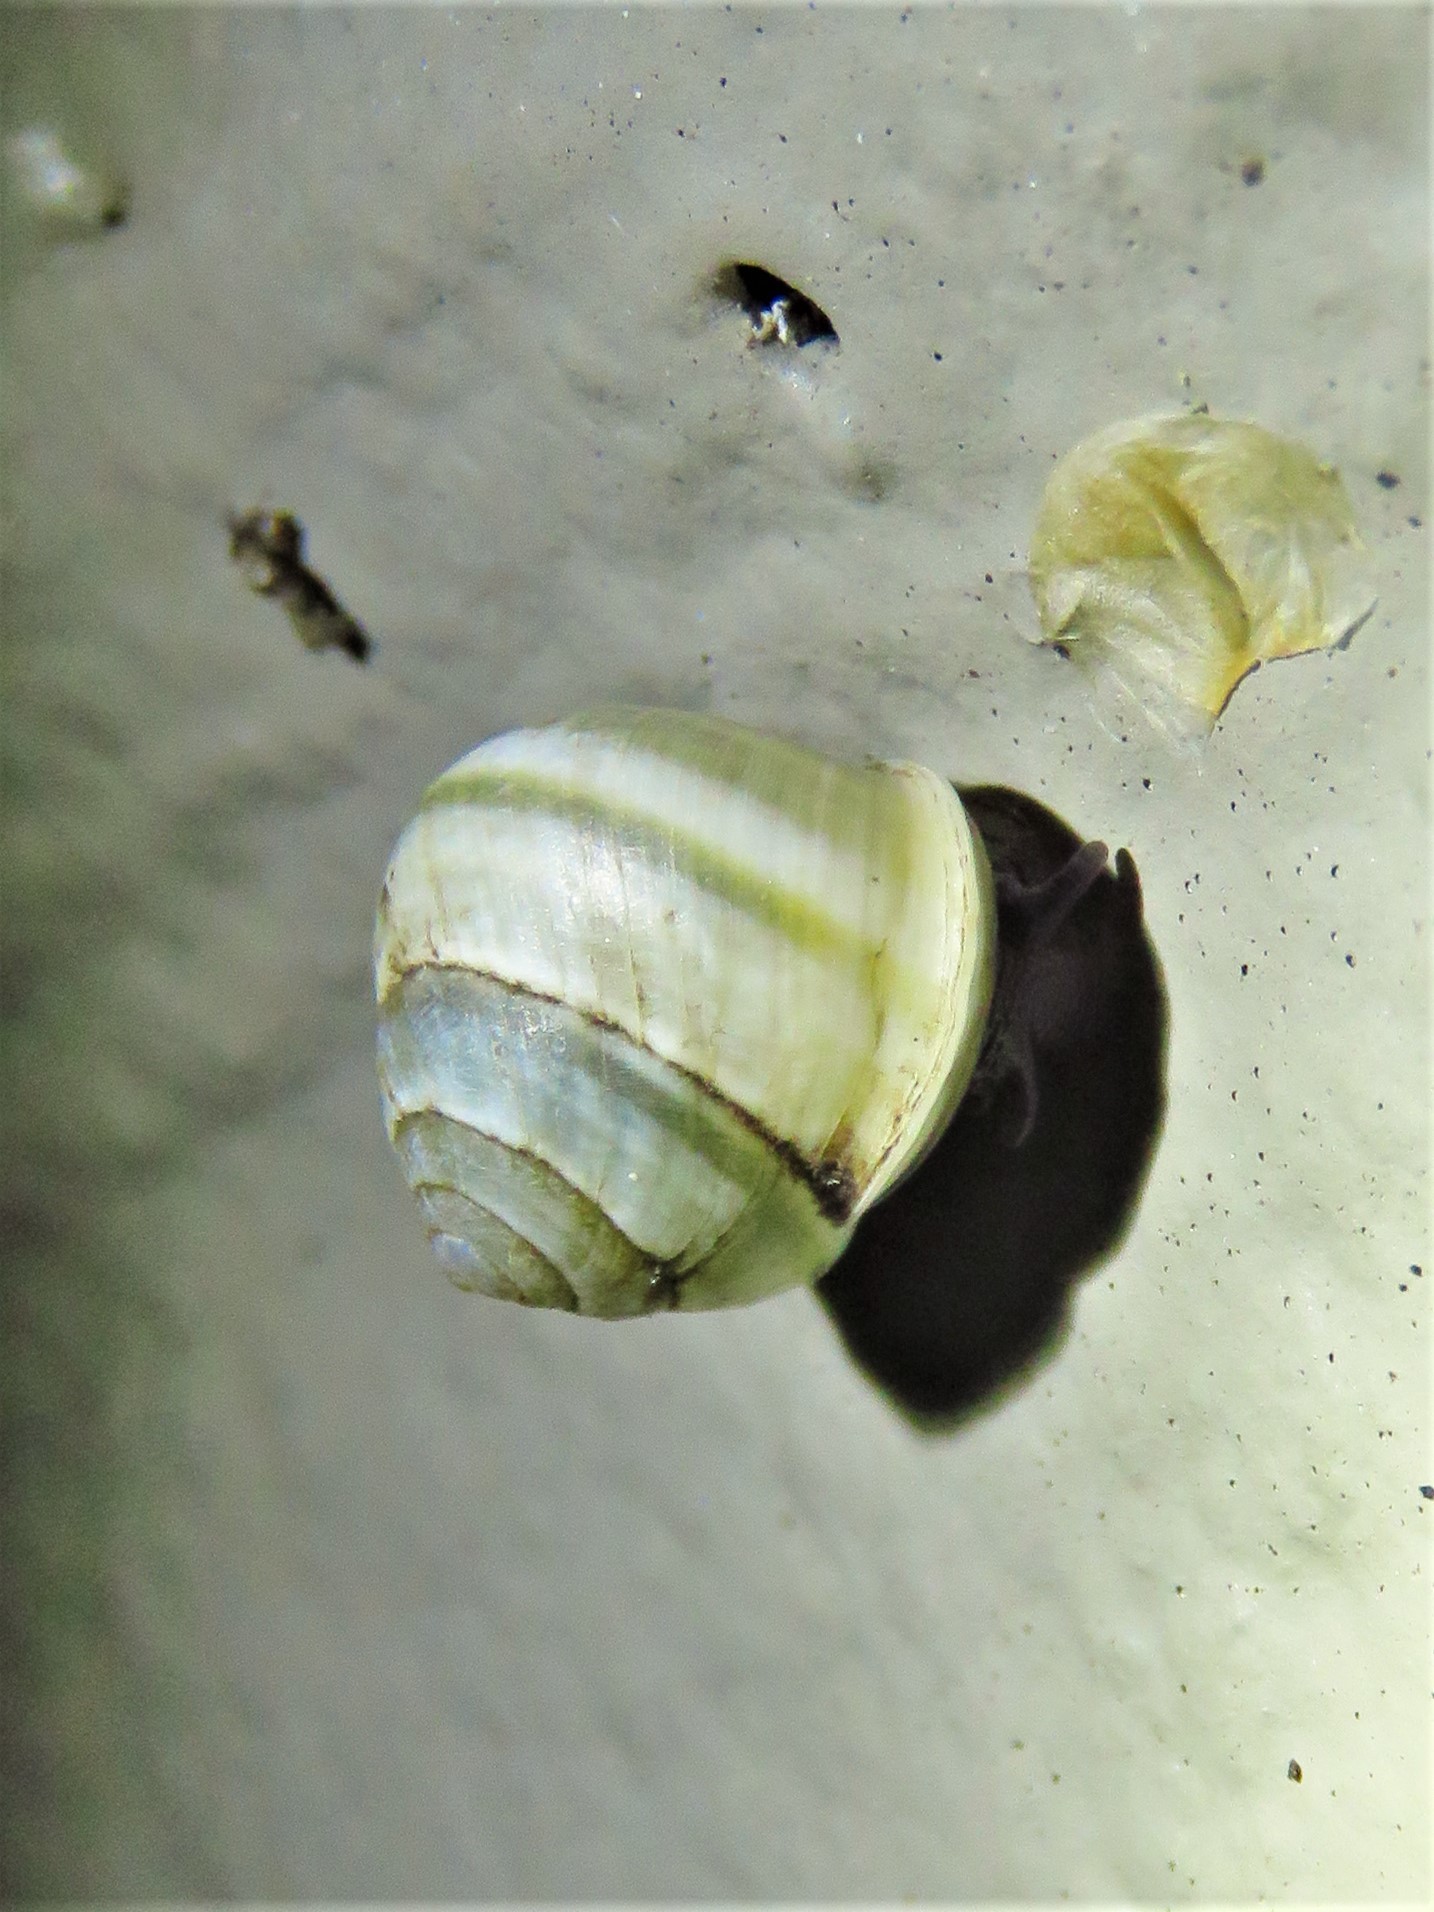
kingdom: Animalia
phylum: Mollusca
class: Gastropoda
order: Cycloneritida
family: Helicinidae
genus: Helicina
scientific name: Helicina orbiculata
